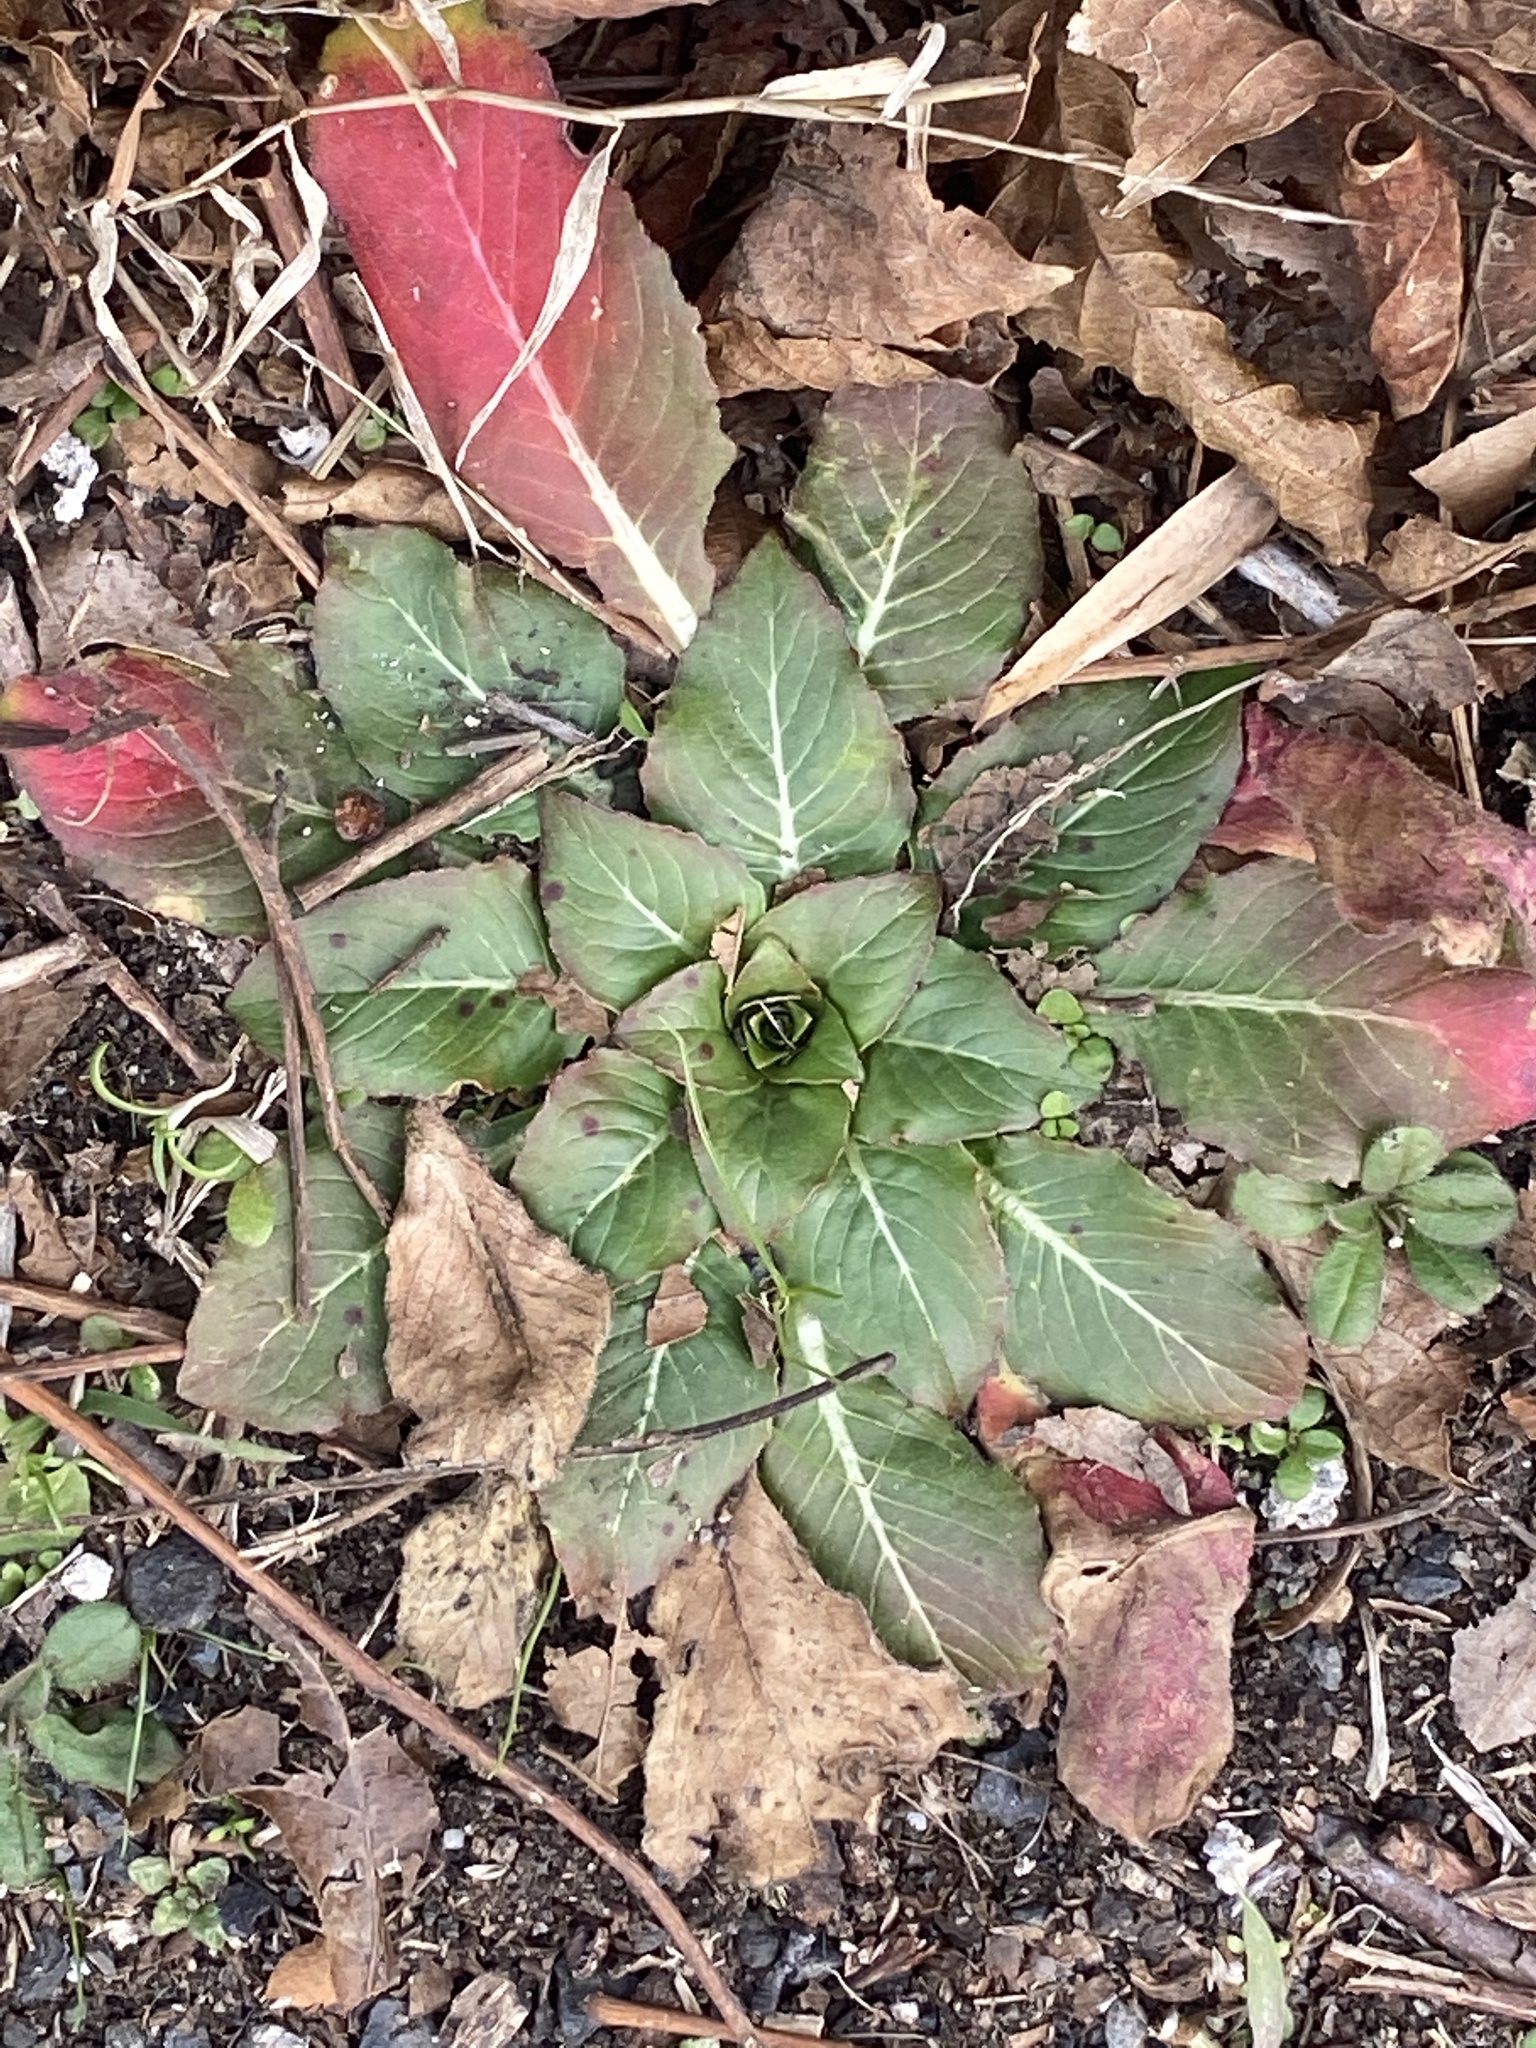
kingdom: Plantae
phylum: Tracheophyta
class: Magnoliopsida
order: Myrtales
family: Onagraceae
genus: Oenothera
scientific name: Oenothera biennis
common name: Common evening-primrose
